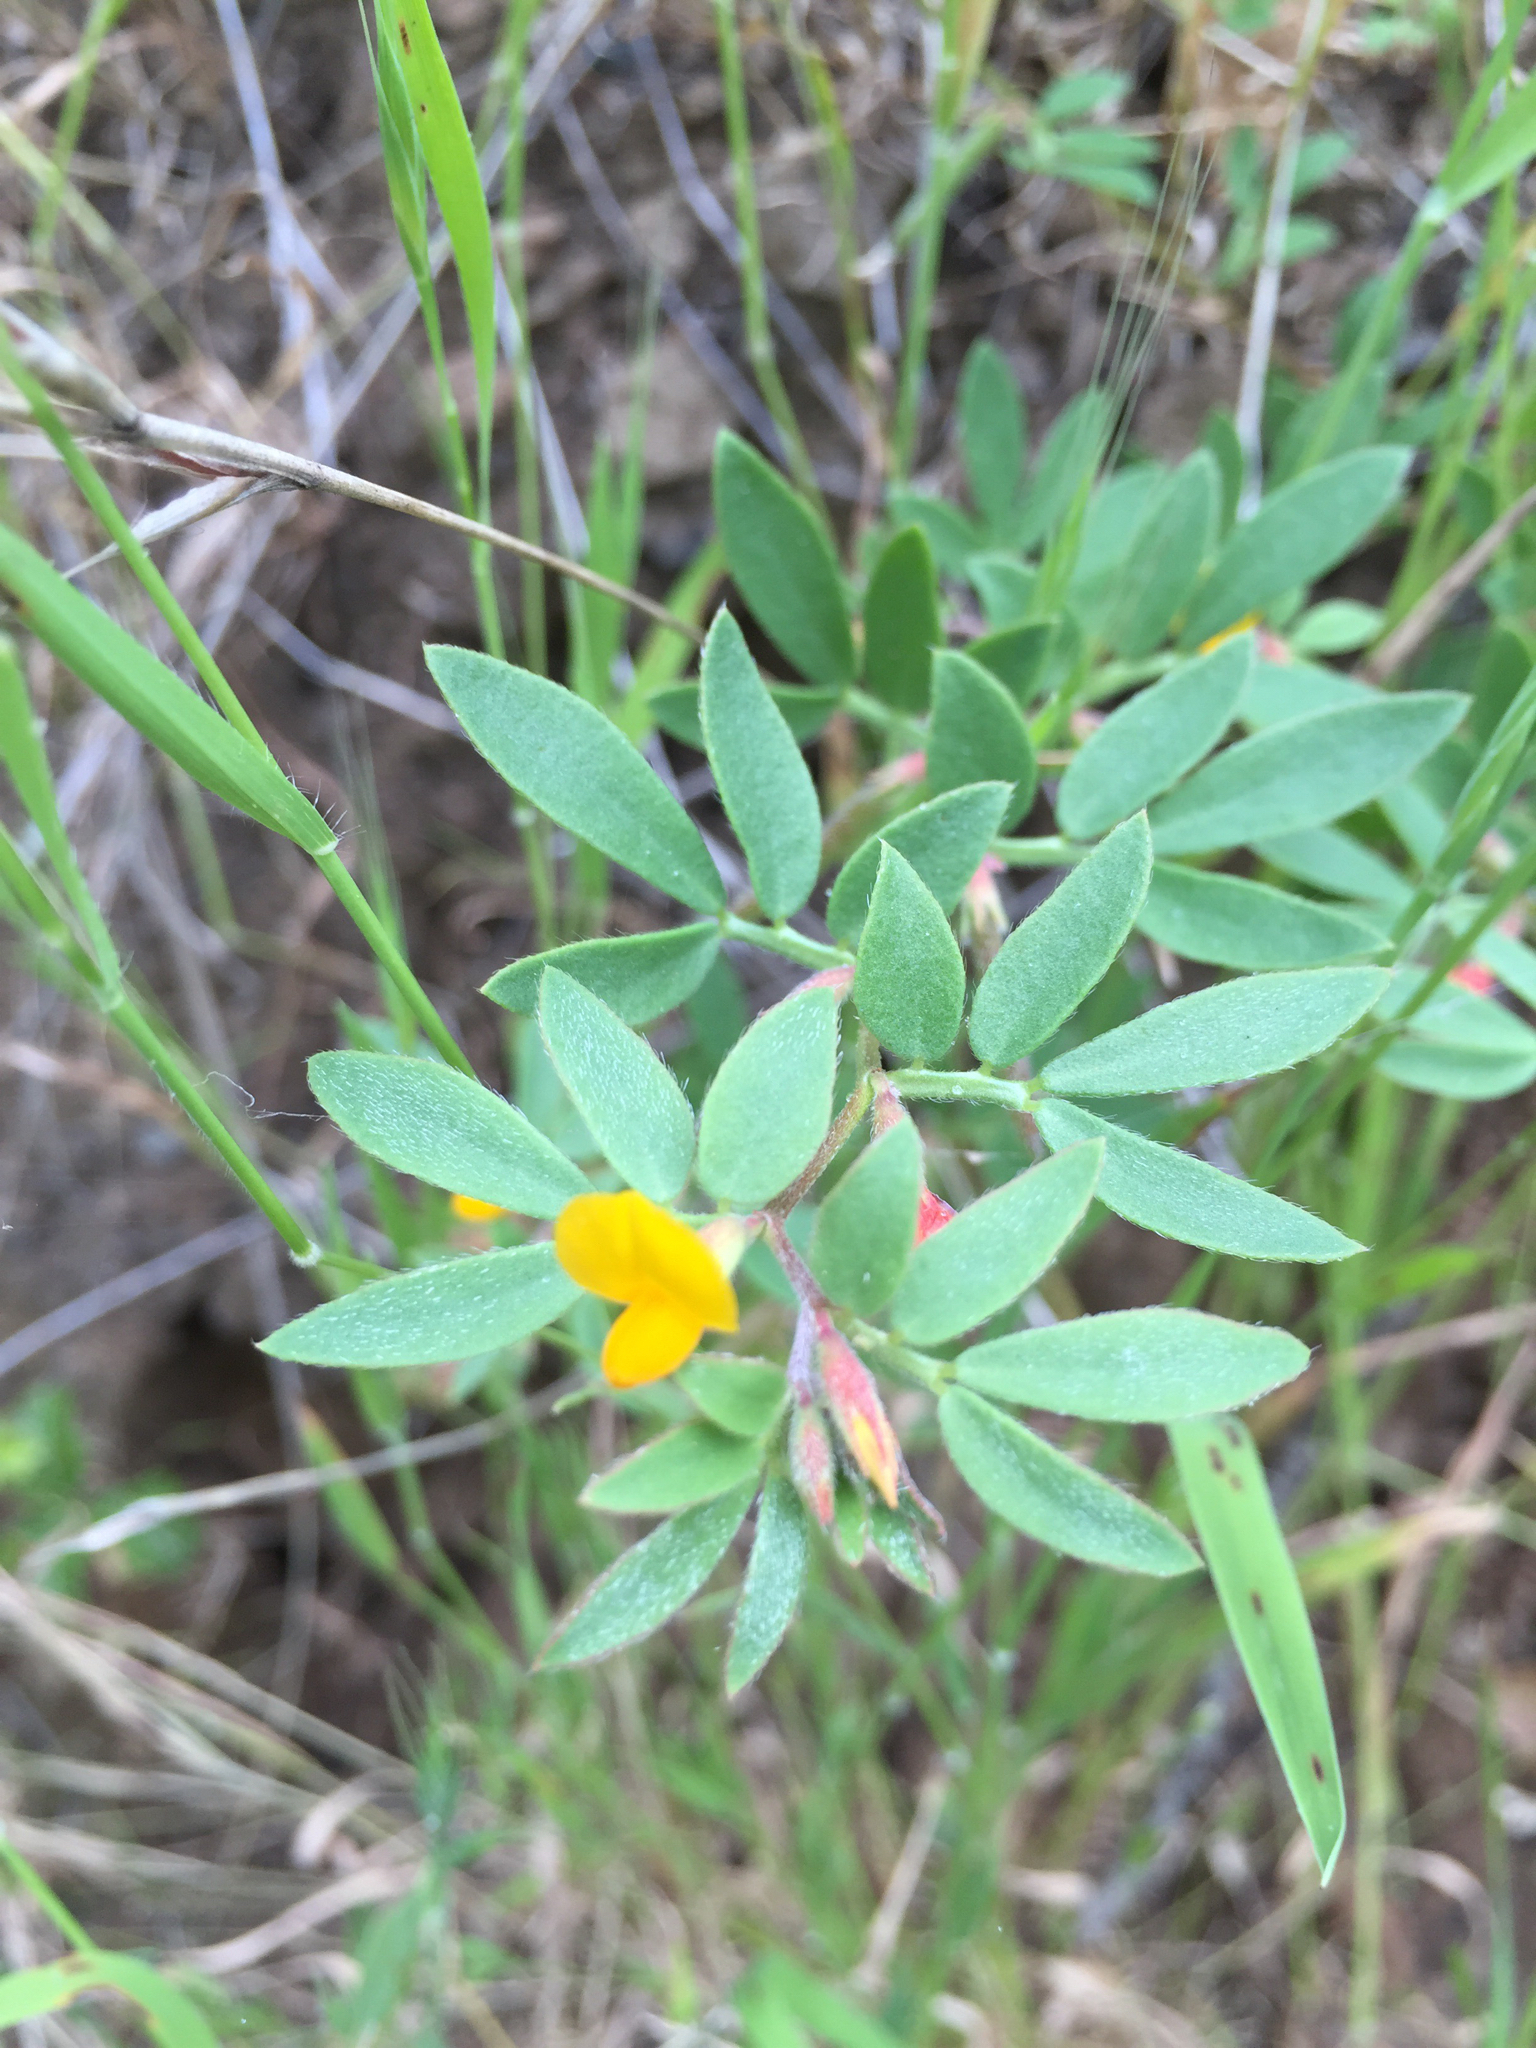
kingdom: Plantae
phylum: Tracheophyta
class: Magnoliopsida
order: Fabales
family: Fabaceae
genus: Acmispon
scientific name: Acmispon wrangelianus
